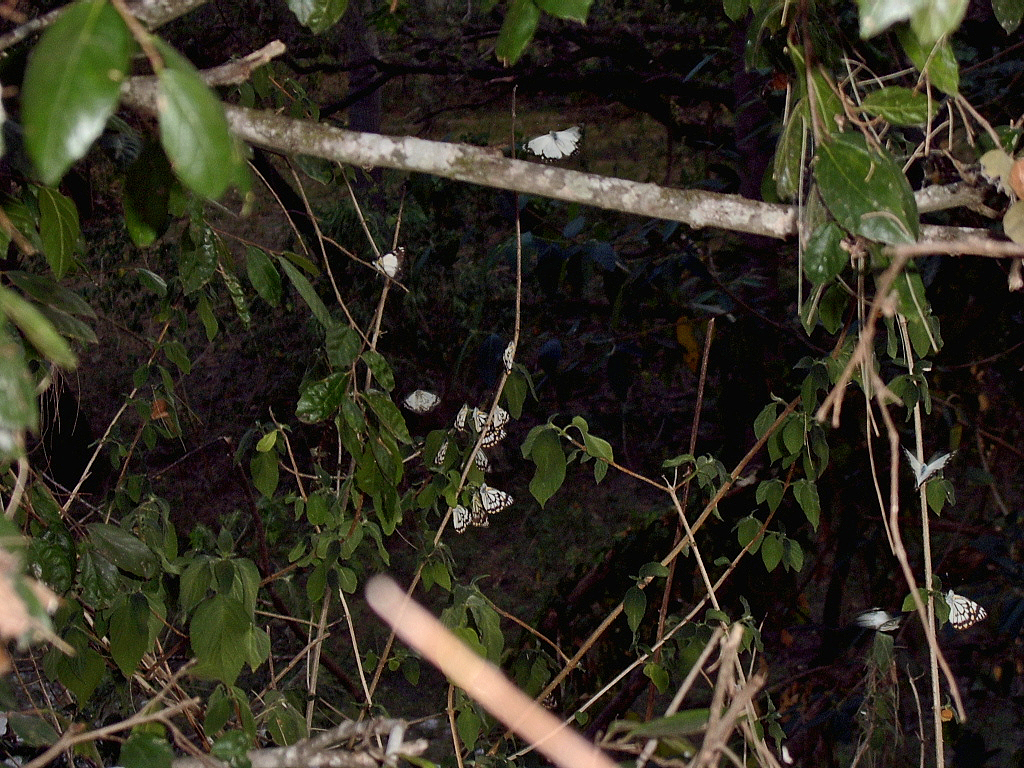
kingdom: Animalia
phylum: Arthropoda
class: Insecta
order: Lepidoptera
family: Pieridae
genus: Belenois
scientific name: Belenois java
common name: Caper white
